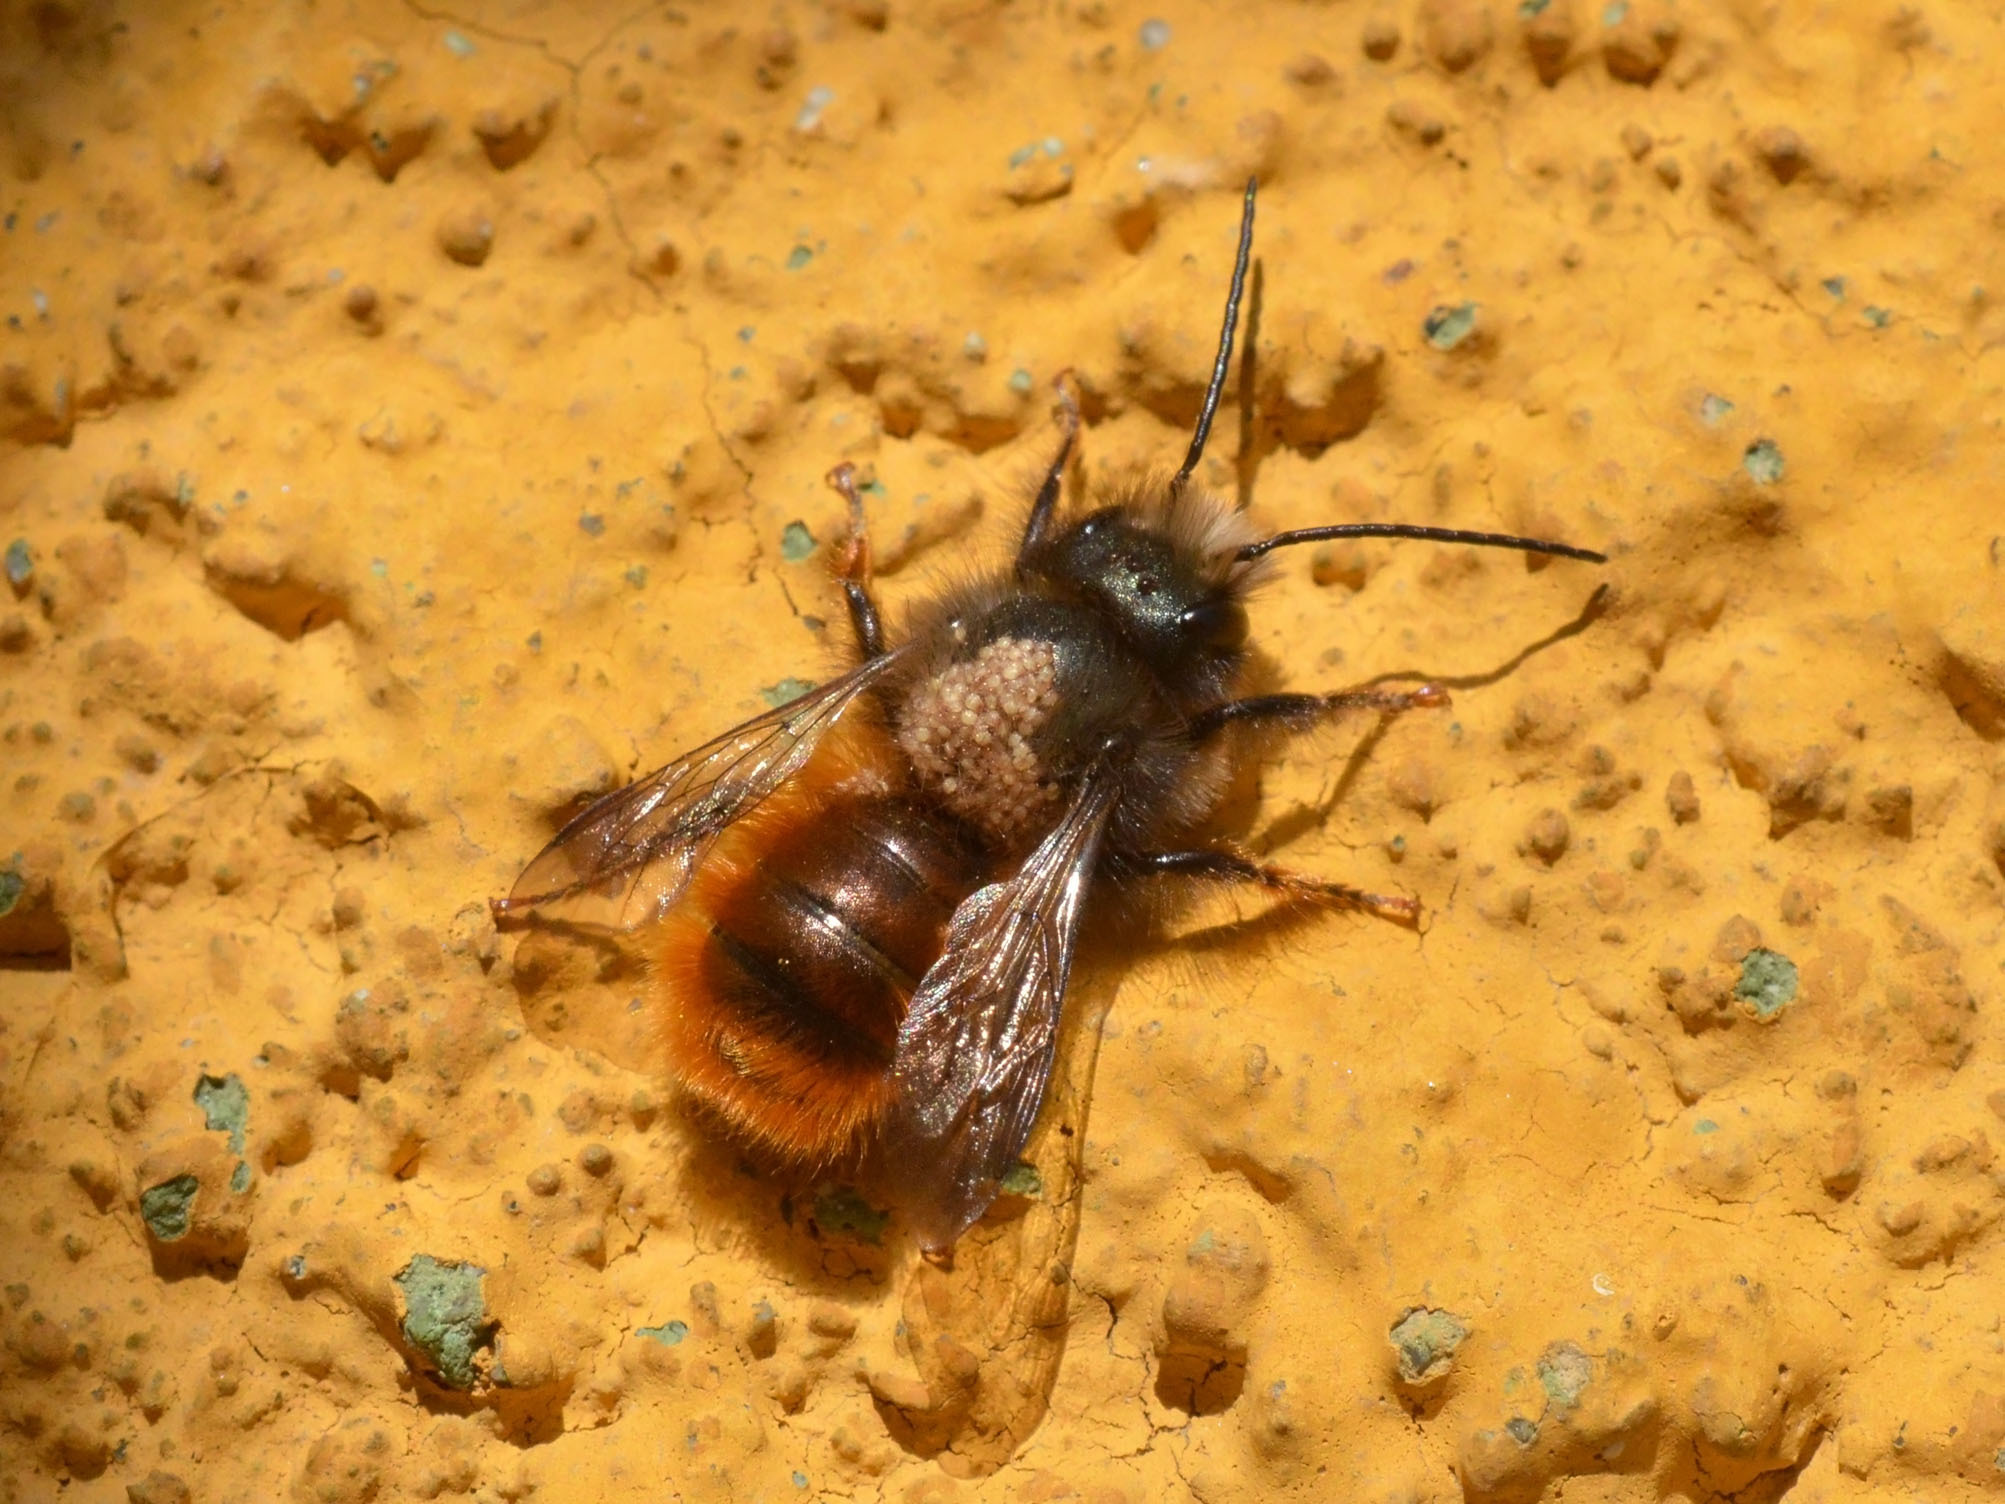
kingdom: Animalia
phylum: Arthropoda
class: Insecta
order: Hymenoptera
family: Megachilidae
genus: Osmia
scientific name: Osmia cornuta
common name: Mason bee
